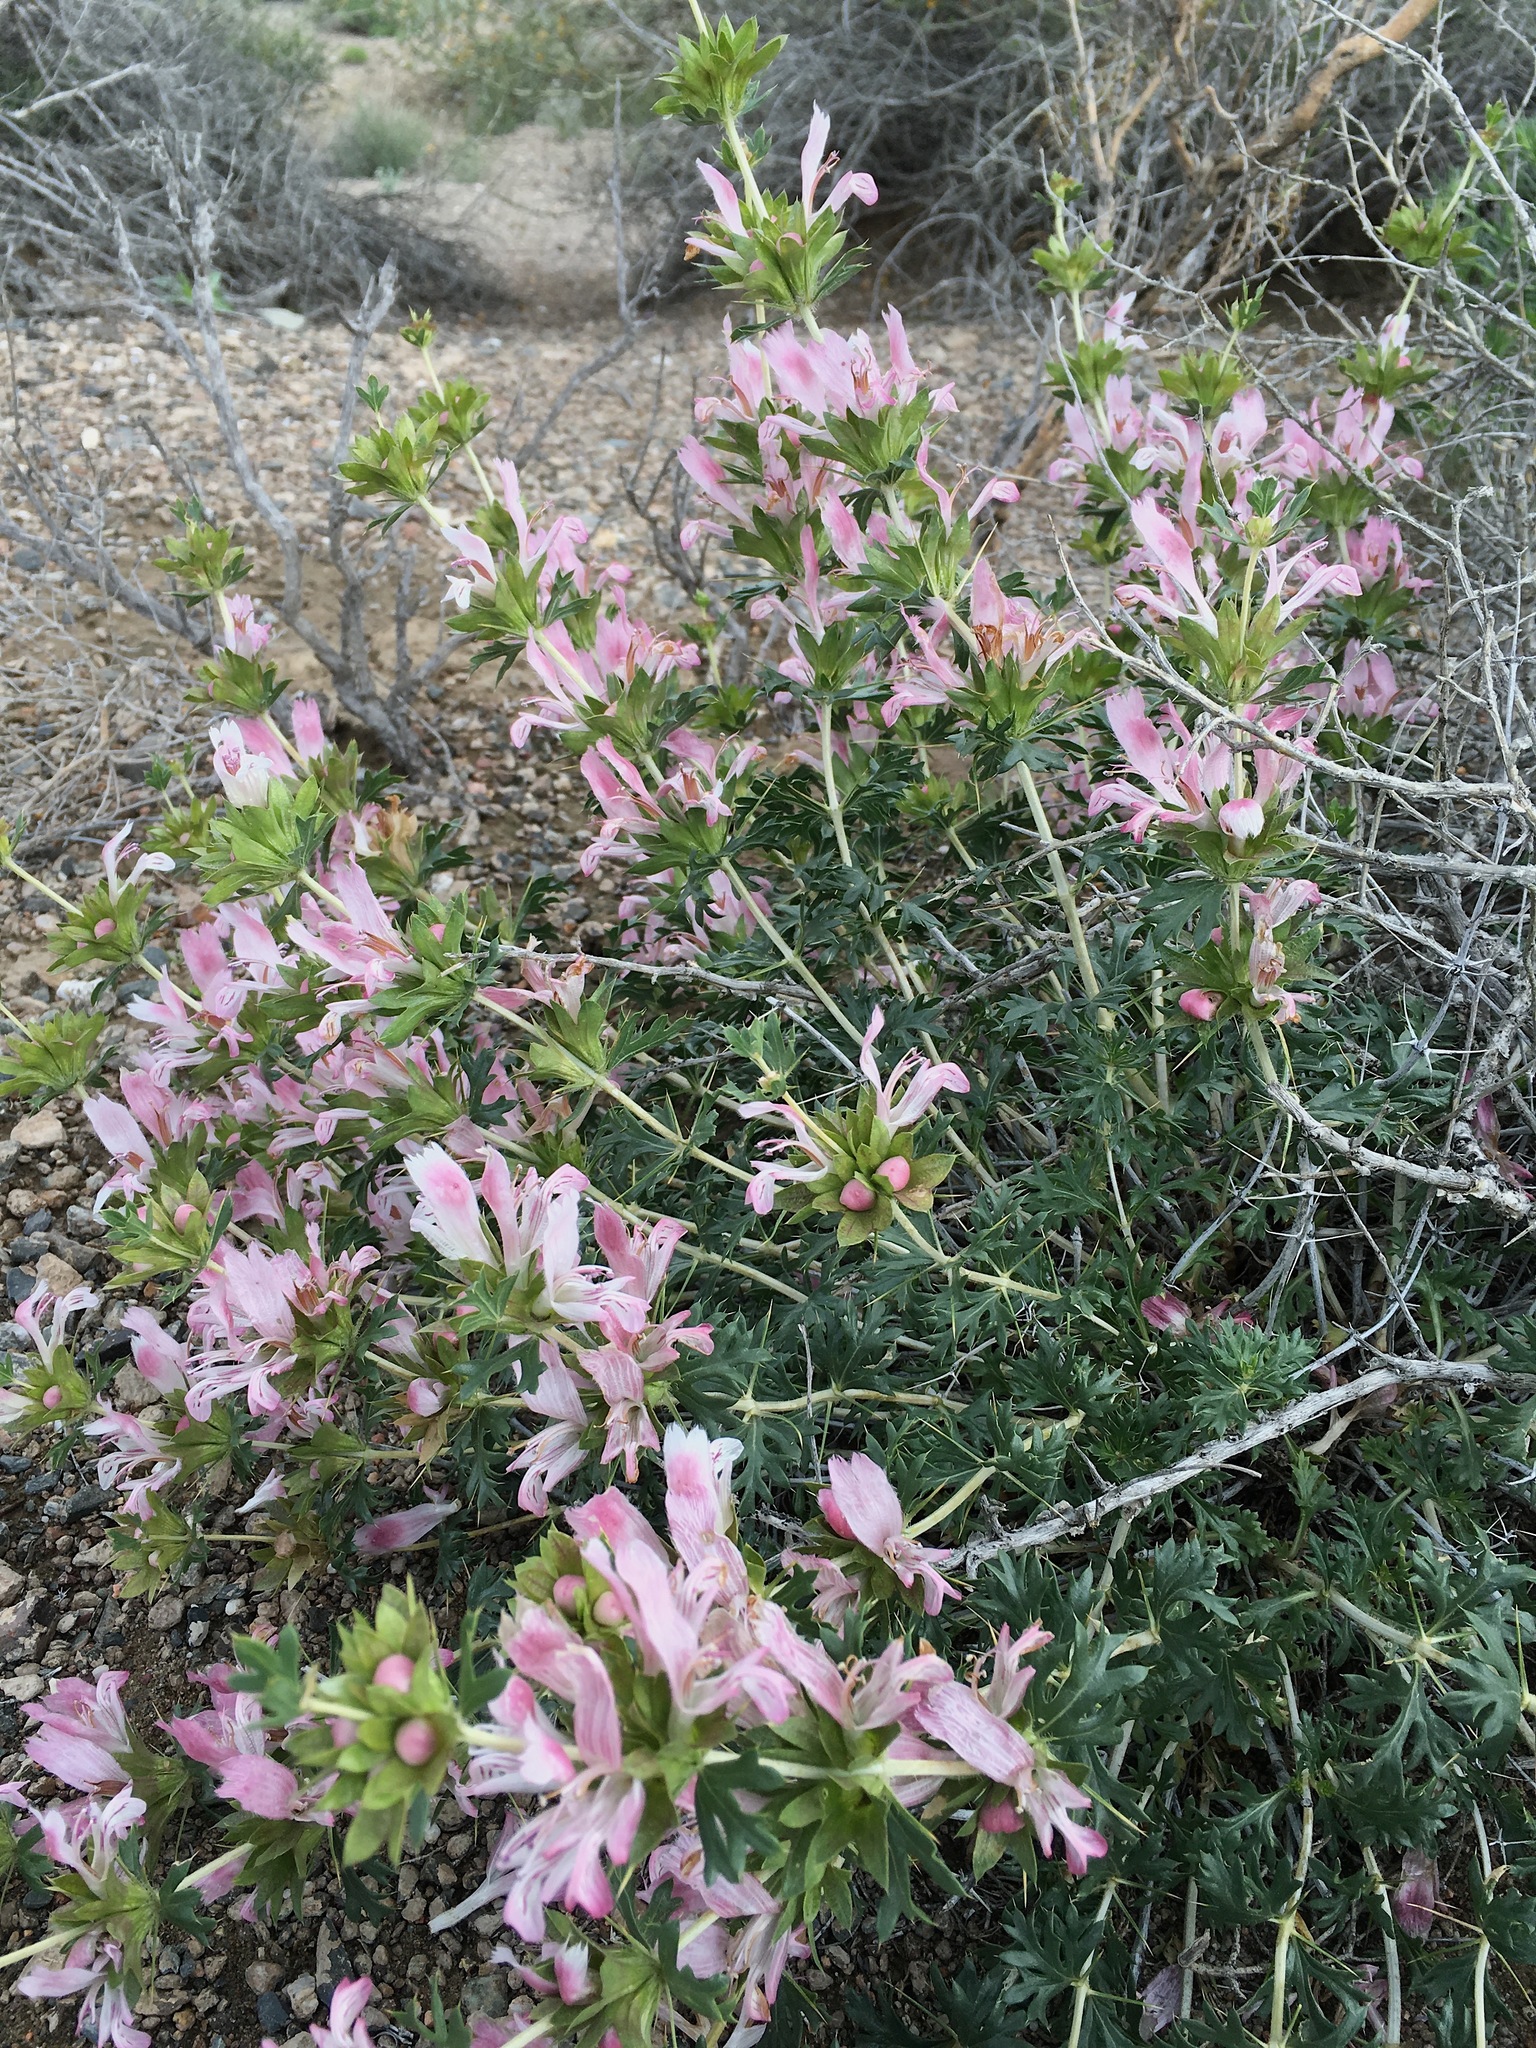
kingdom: Plantae
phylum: Tracheophyta
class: Magnoliopsida
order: Lamiales
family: Lamiaceae
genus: Lagochilus
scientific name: Lagochilus platyacanthus
